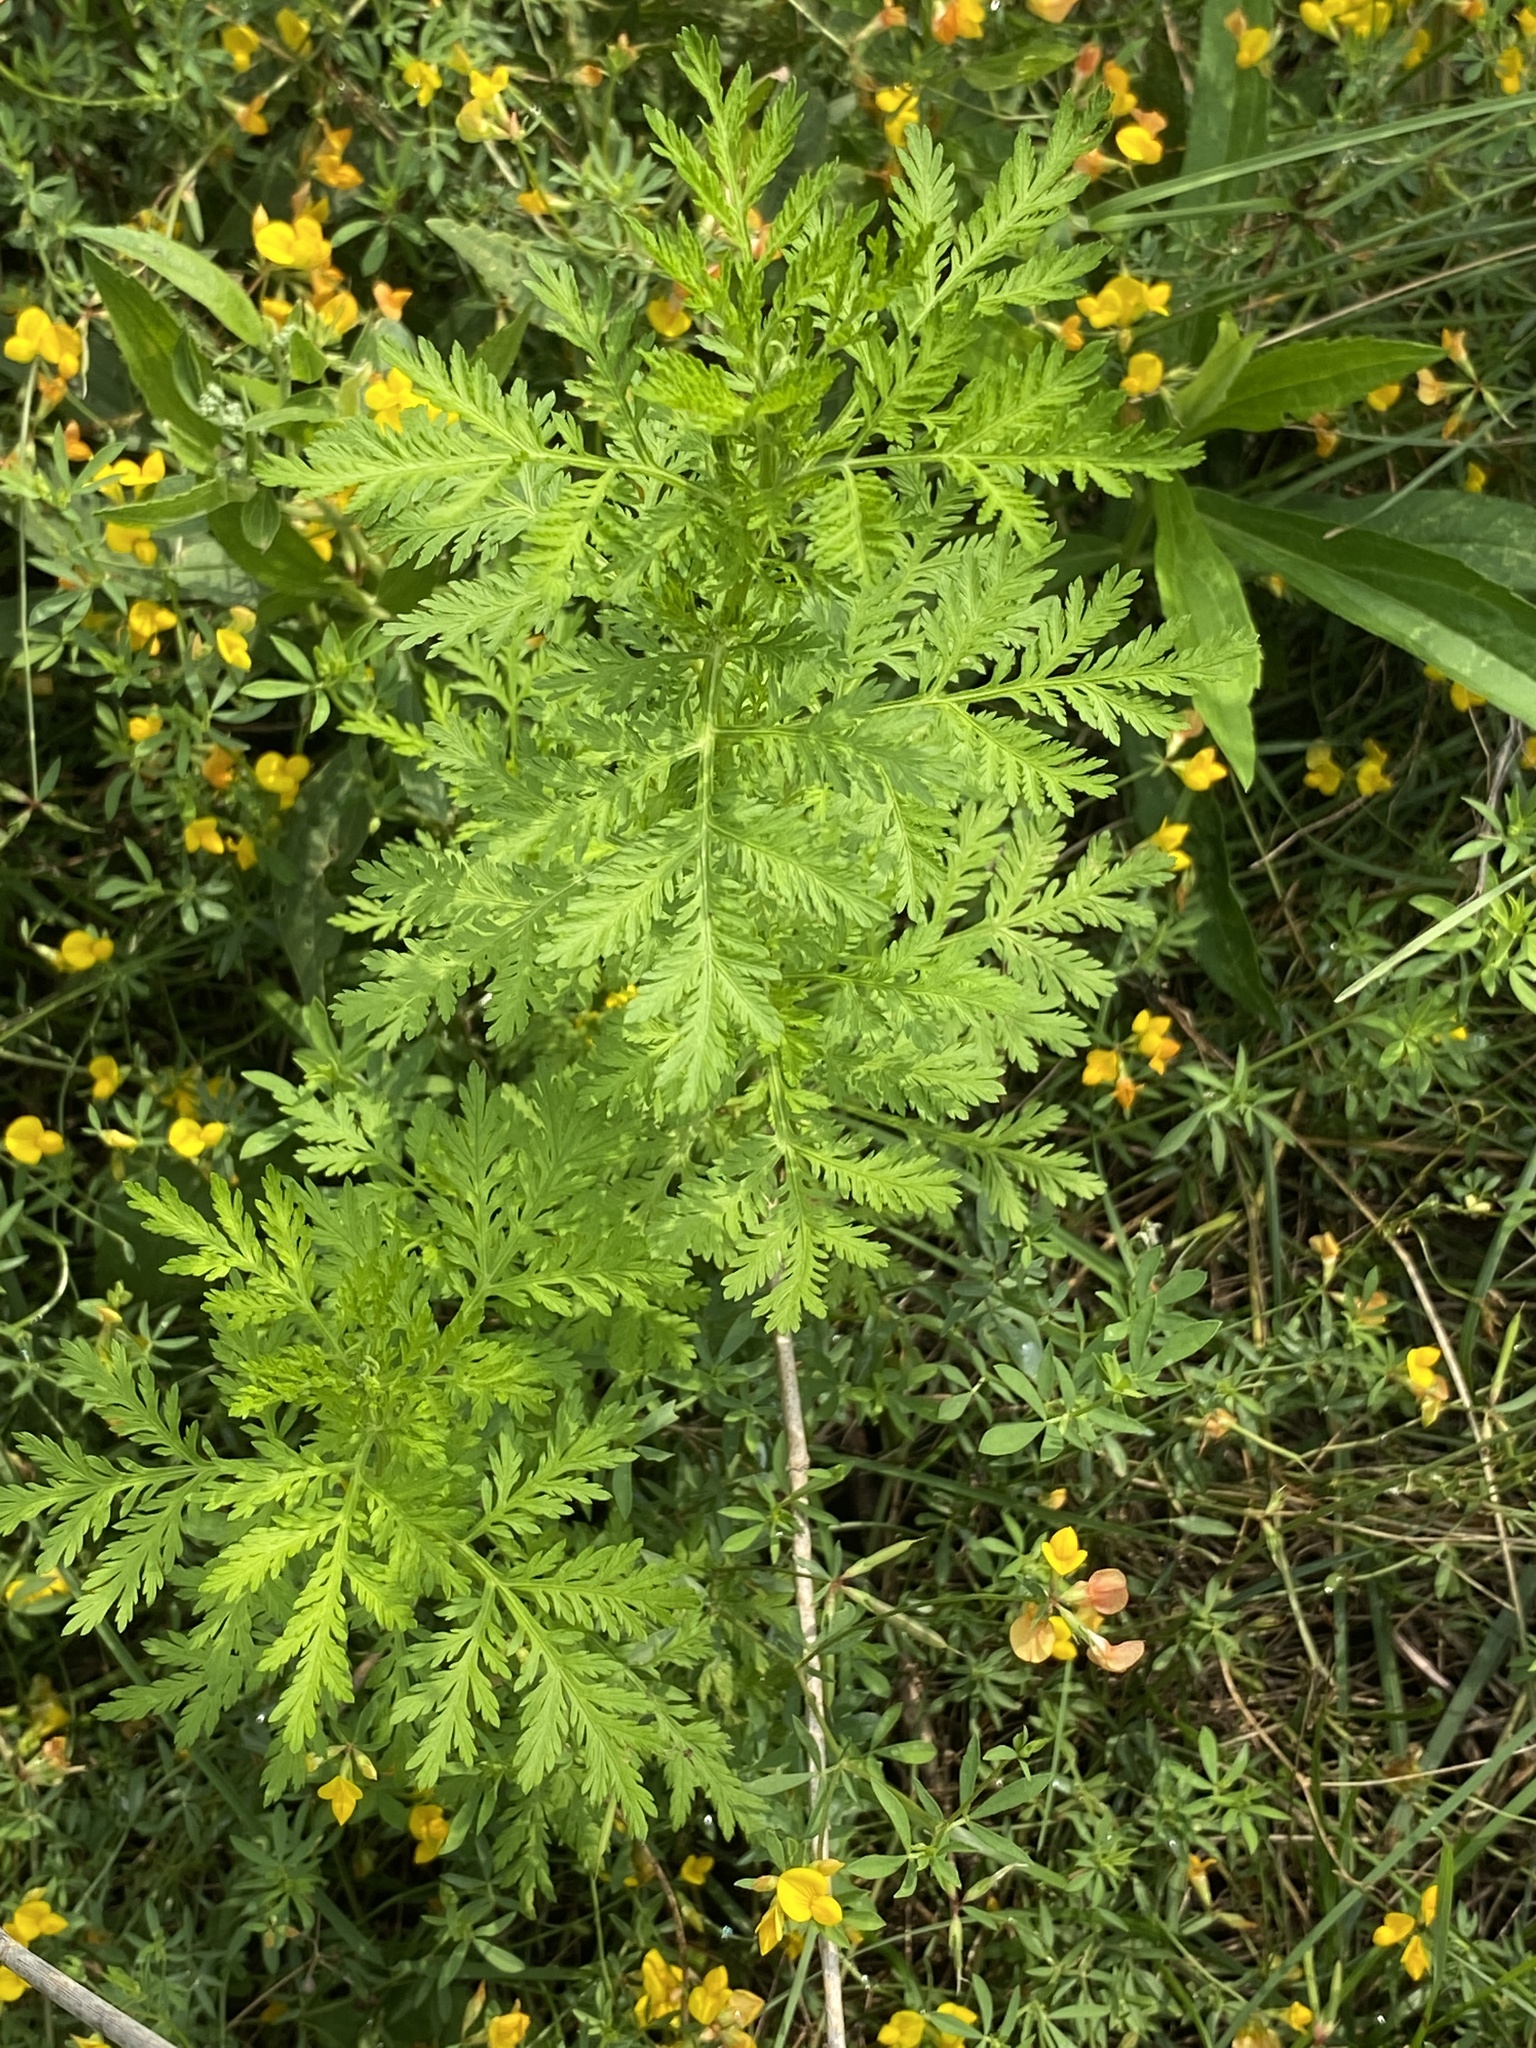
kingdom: Plantae
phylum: Tracheophyta
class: Magnoliopsida
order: Asterales
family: Asteraceae
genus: Artemisia
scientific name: Artemisia annua
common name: Sweet sagewort
